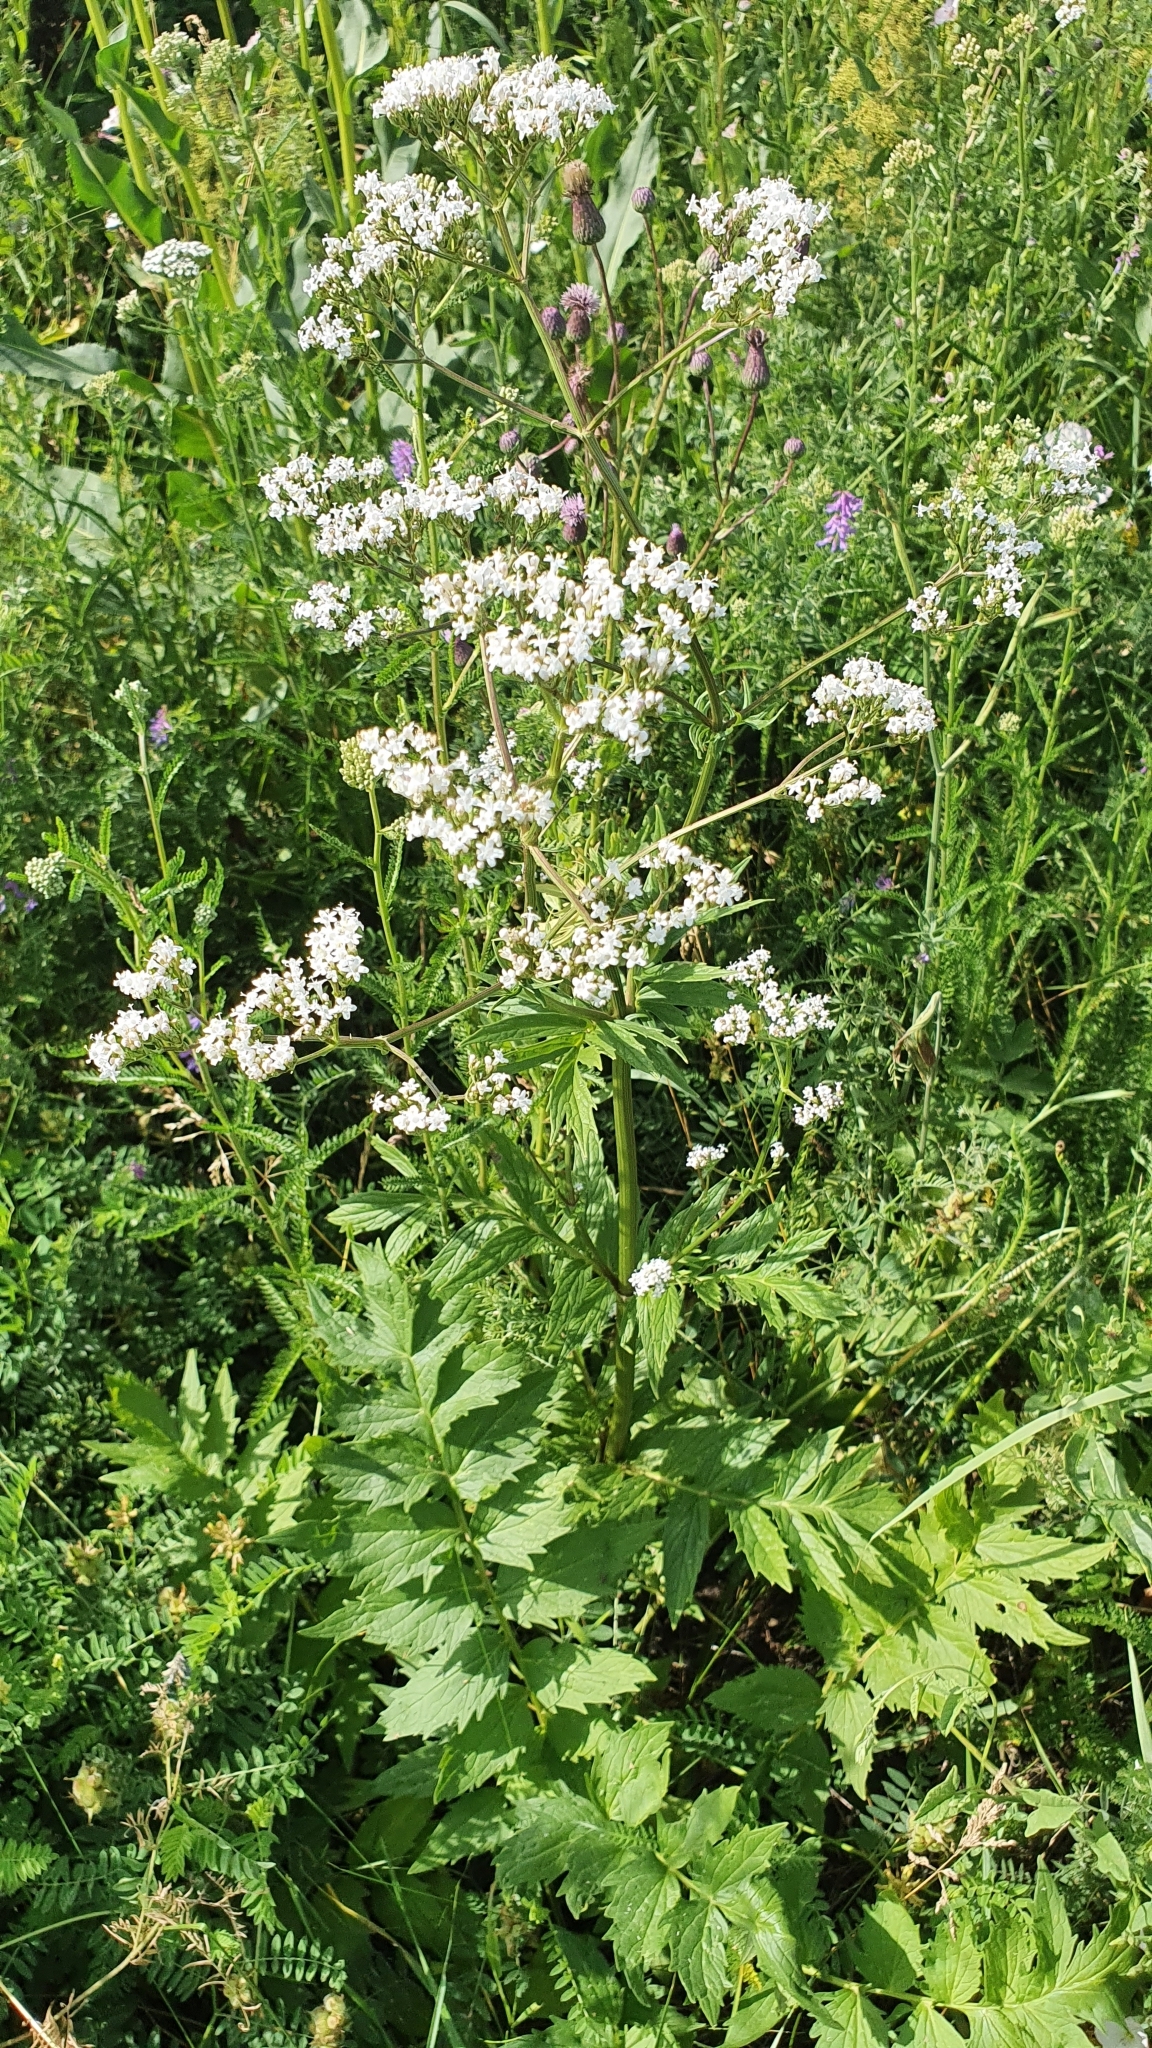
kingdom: Plantae
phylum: Tracheophyta
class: Magnoliopsida
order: Dipsacales
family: Caprifoliaceae
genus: Valeriana
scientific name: Valeriana officinalis
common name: Common valerian
